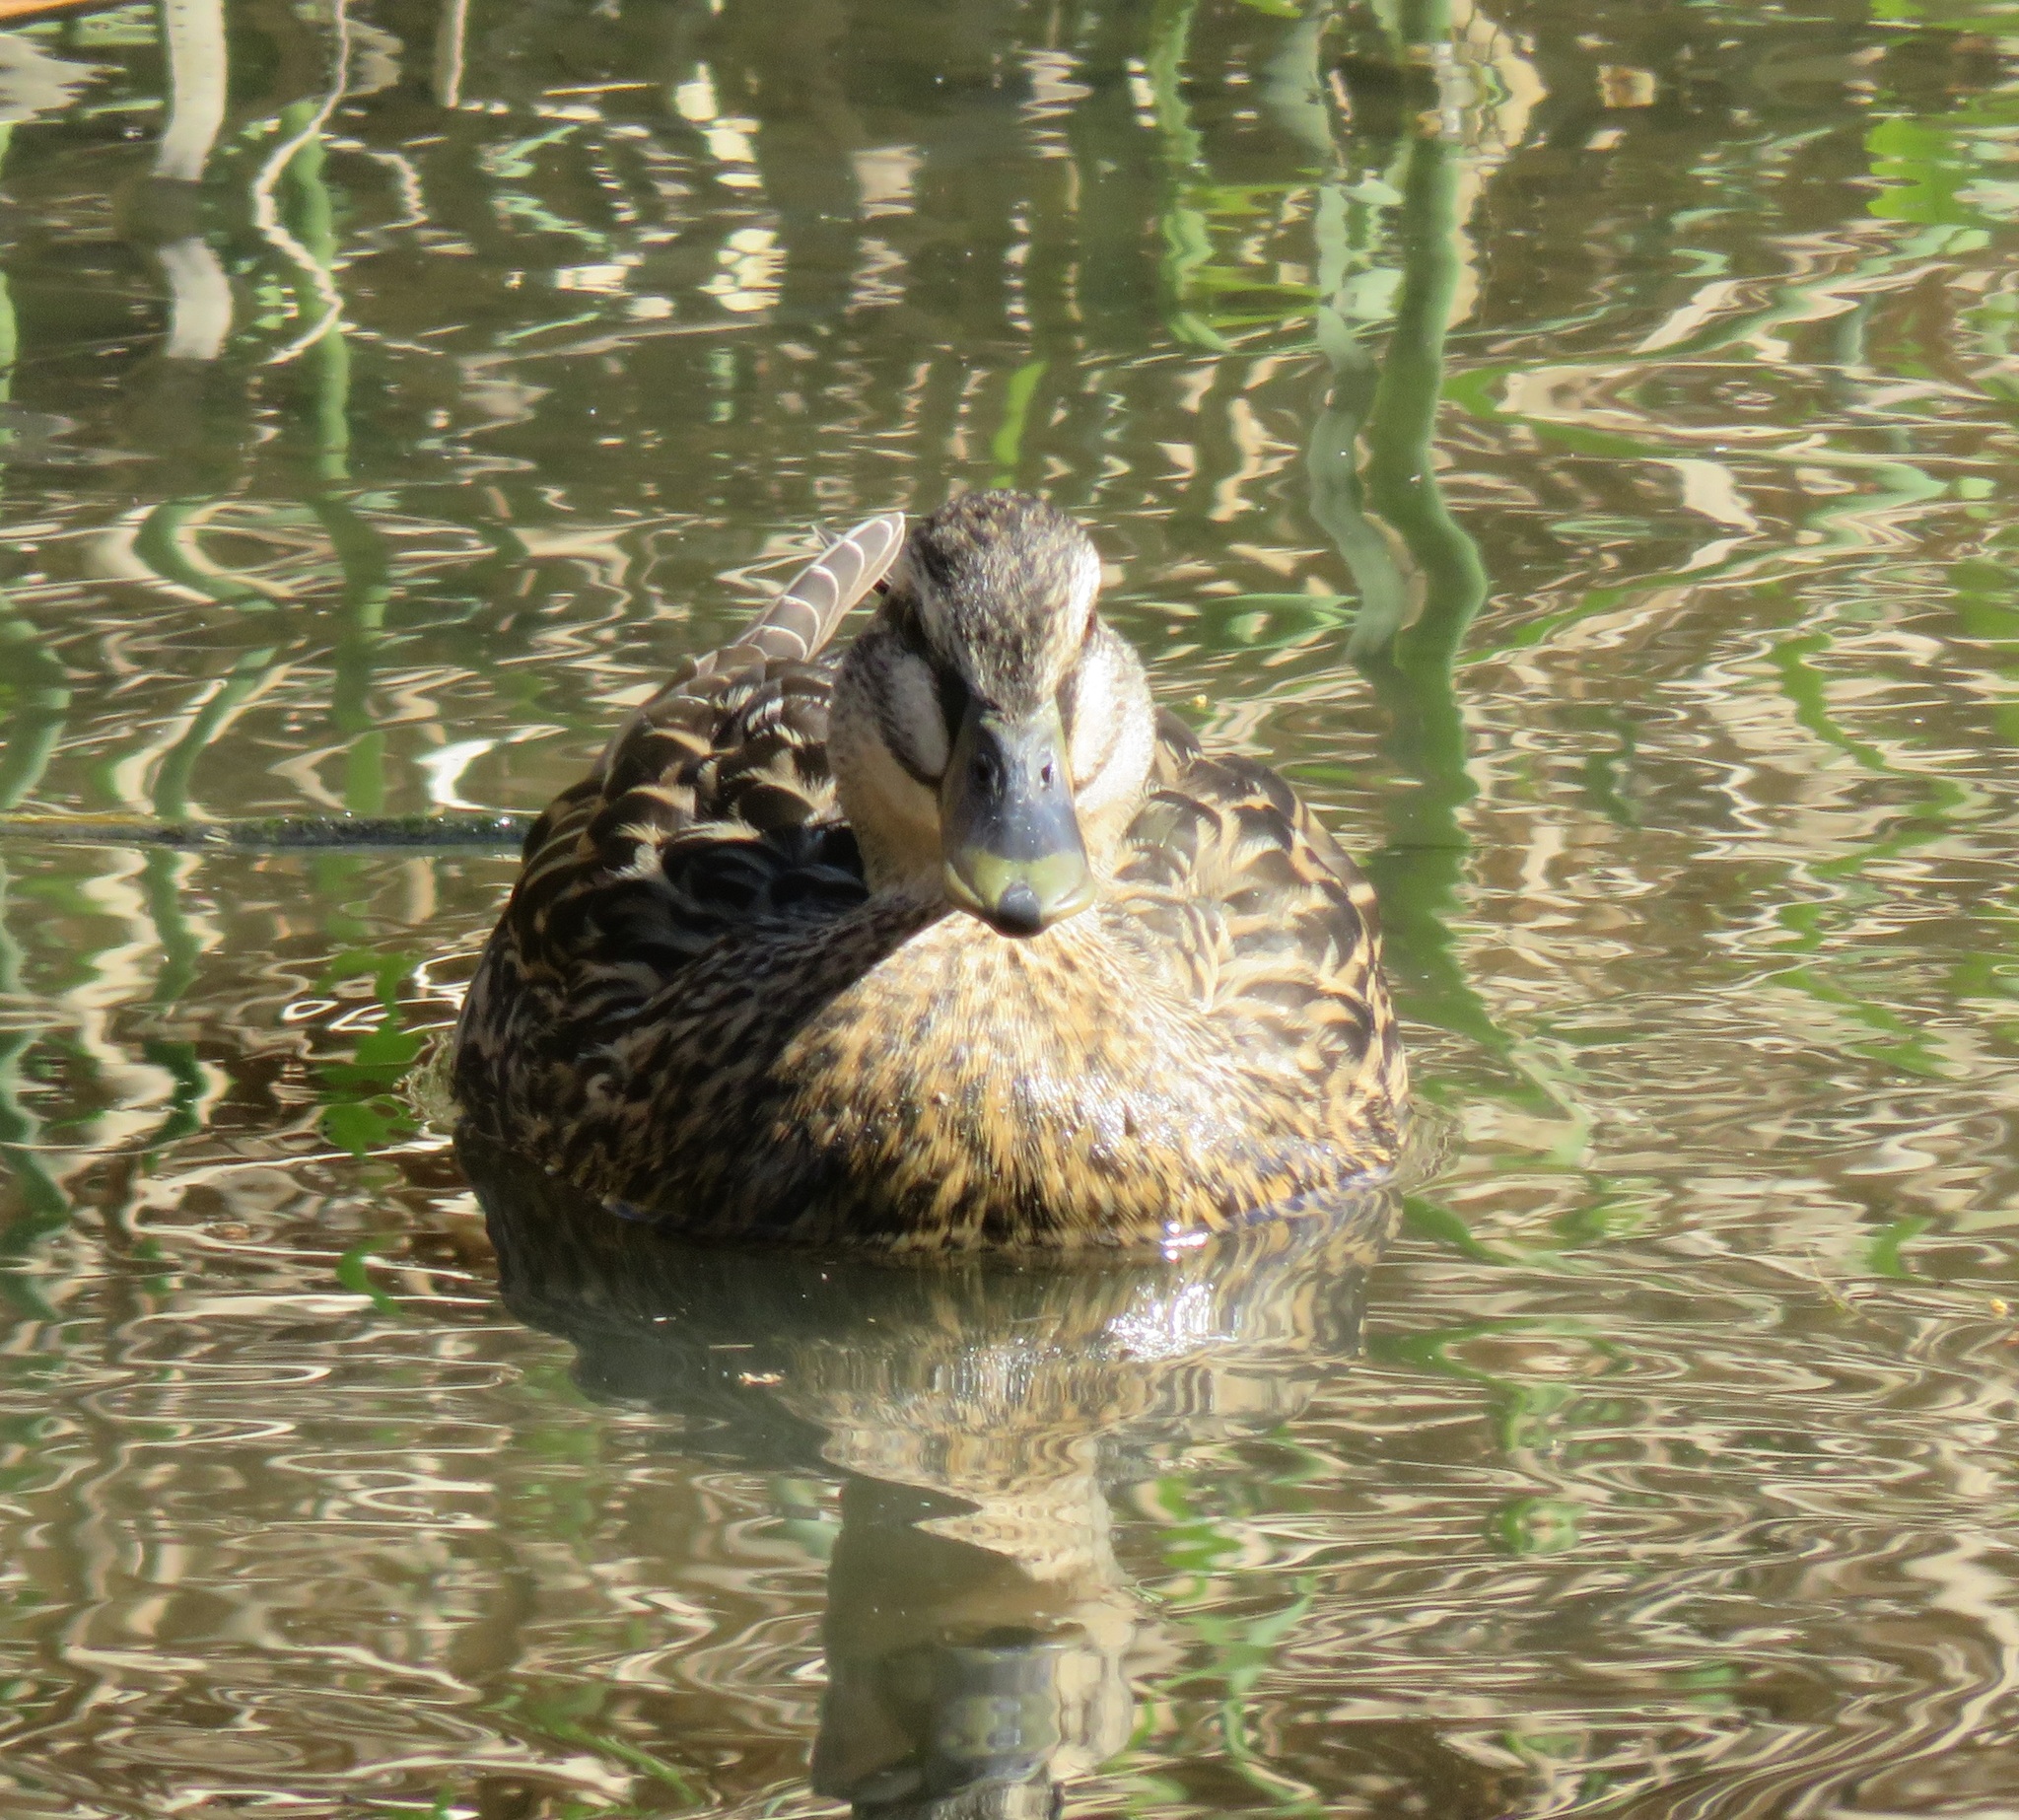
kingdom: Animalia
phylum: Chordata
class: Aves
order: Anseriformes
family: Anatidae
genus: Anas
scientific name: Anas
